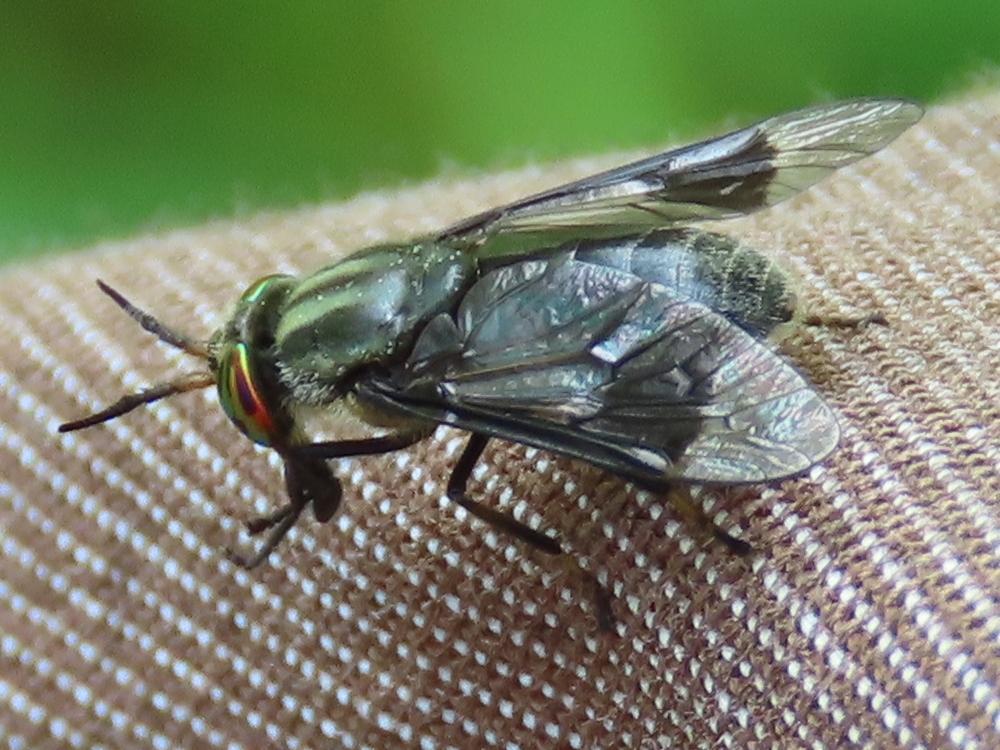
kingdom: Animalia
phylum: Arthropoda
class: Insecta
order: Diptera
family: Tabanidae
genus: Chrysops
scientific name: Chrysops niger
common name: Black deer fly
